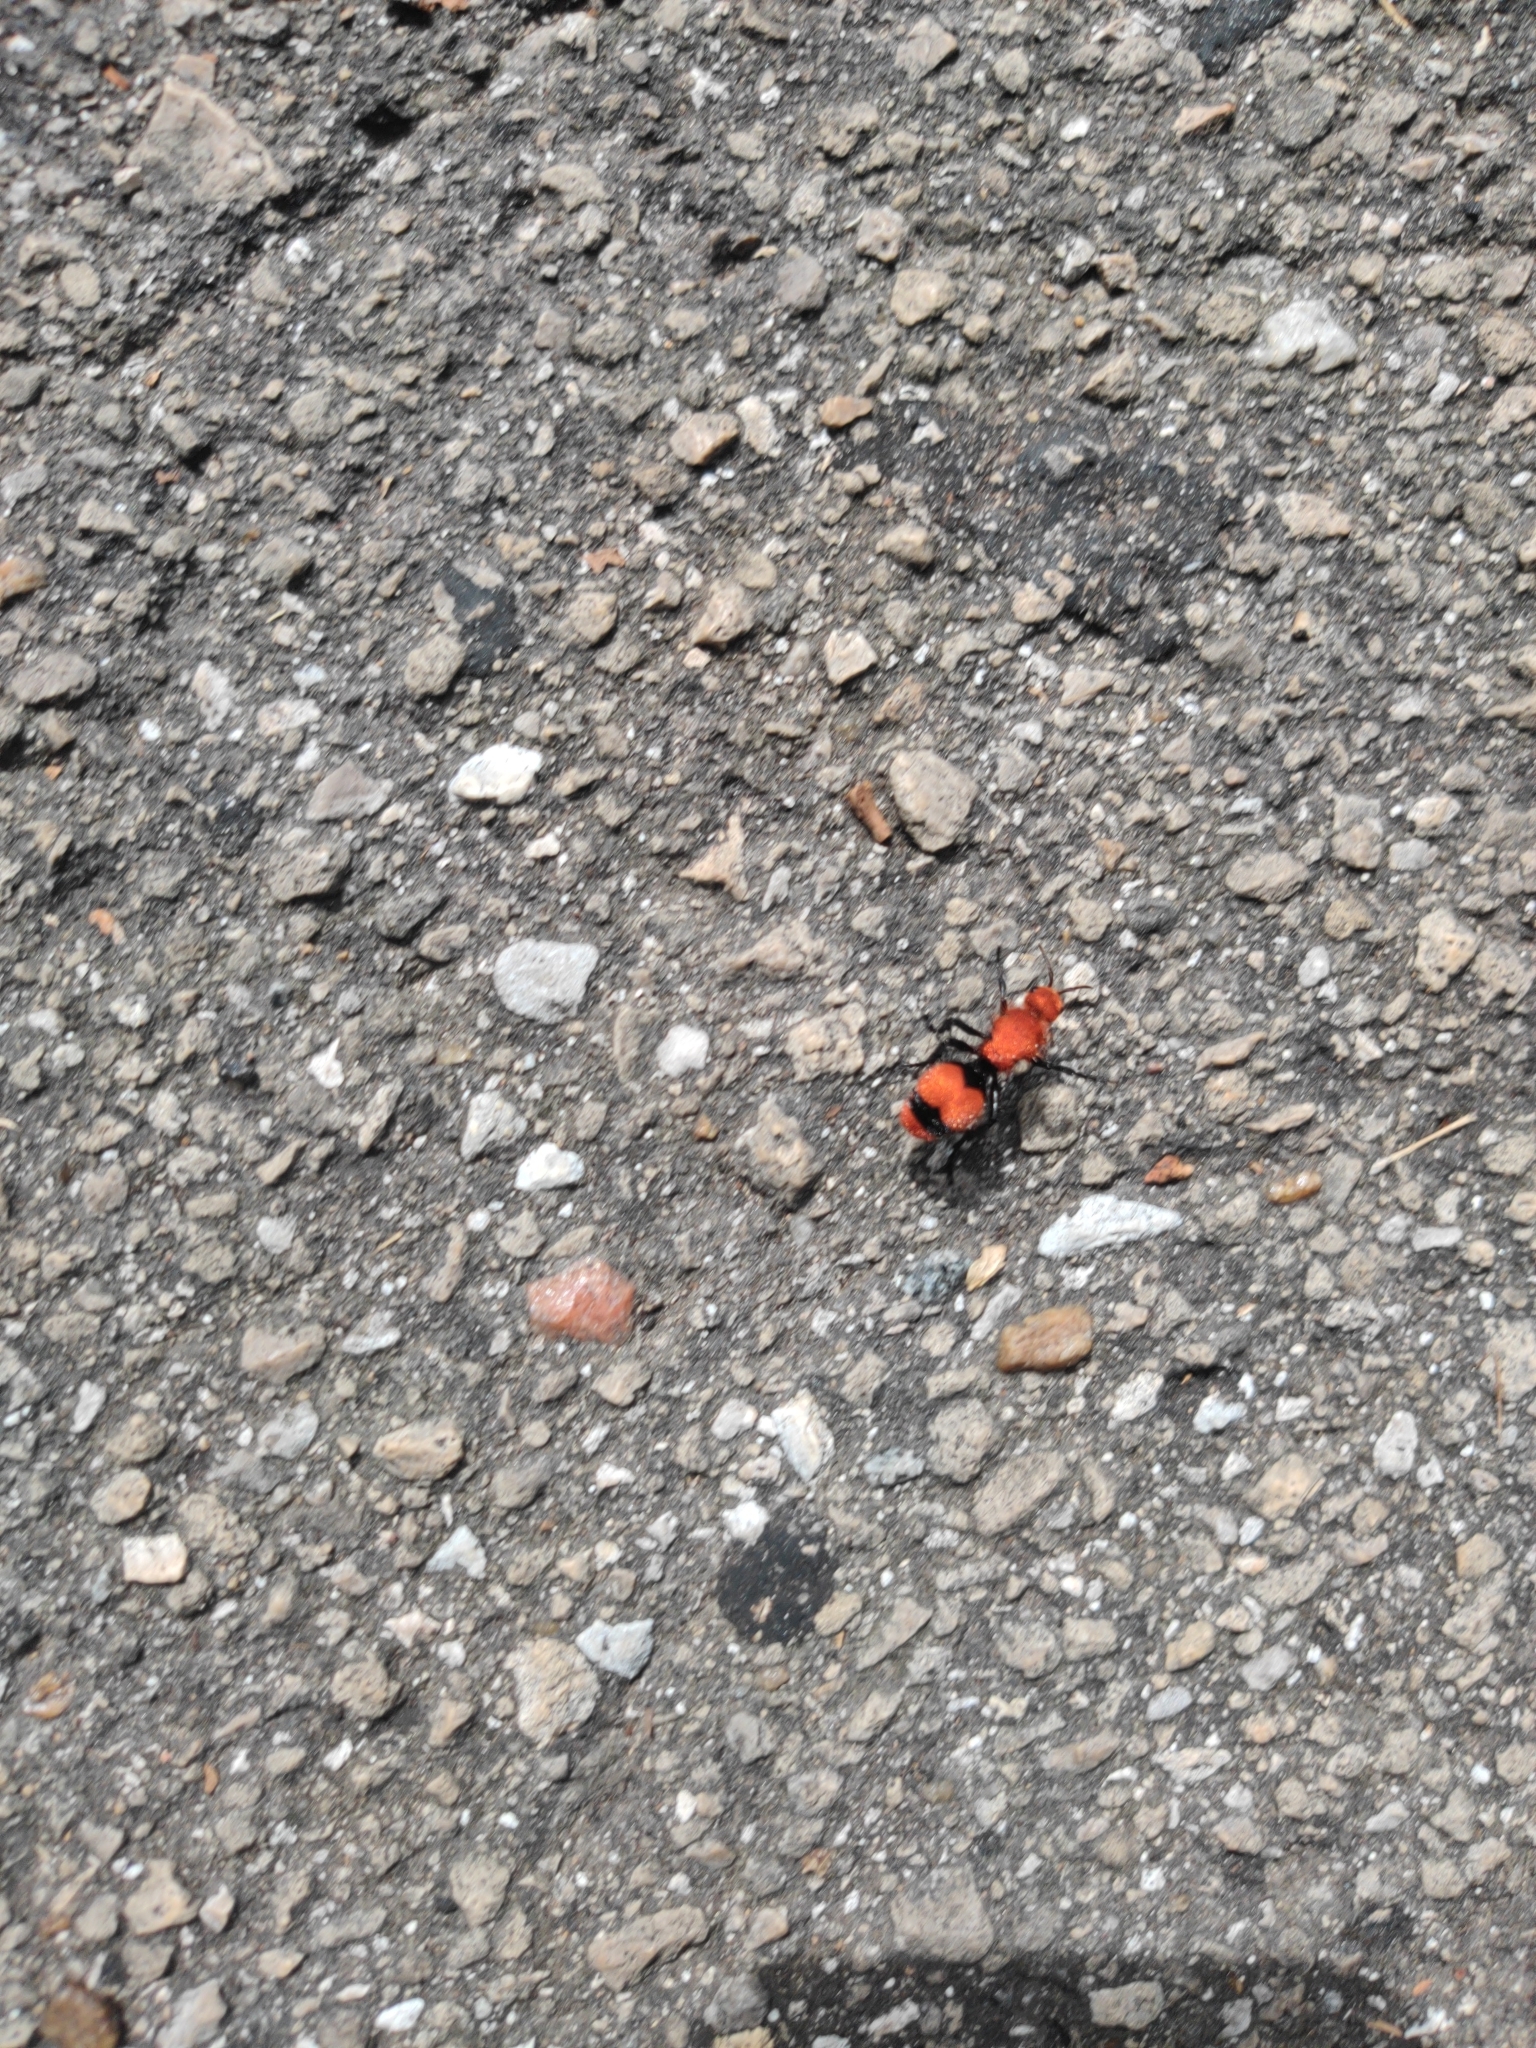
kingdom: Animalia
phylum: Arthropoda
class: Insecta
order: Hymenoptera
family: Mutillidae
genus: Dasymutilla
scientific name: Dasymutilla occidentalis
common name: Common eastern velvet ant
